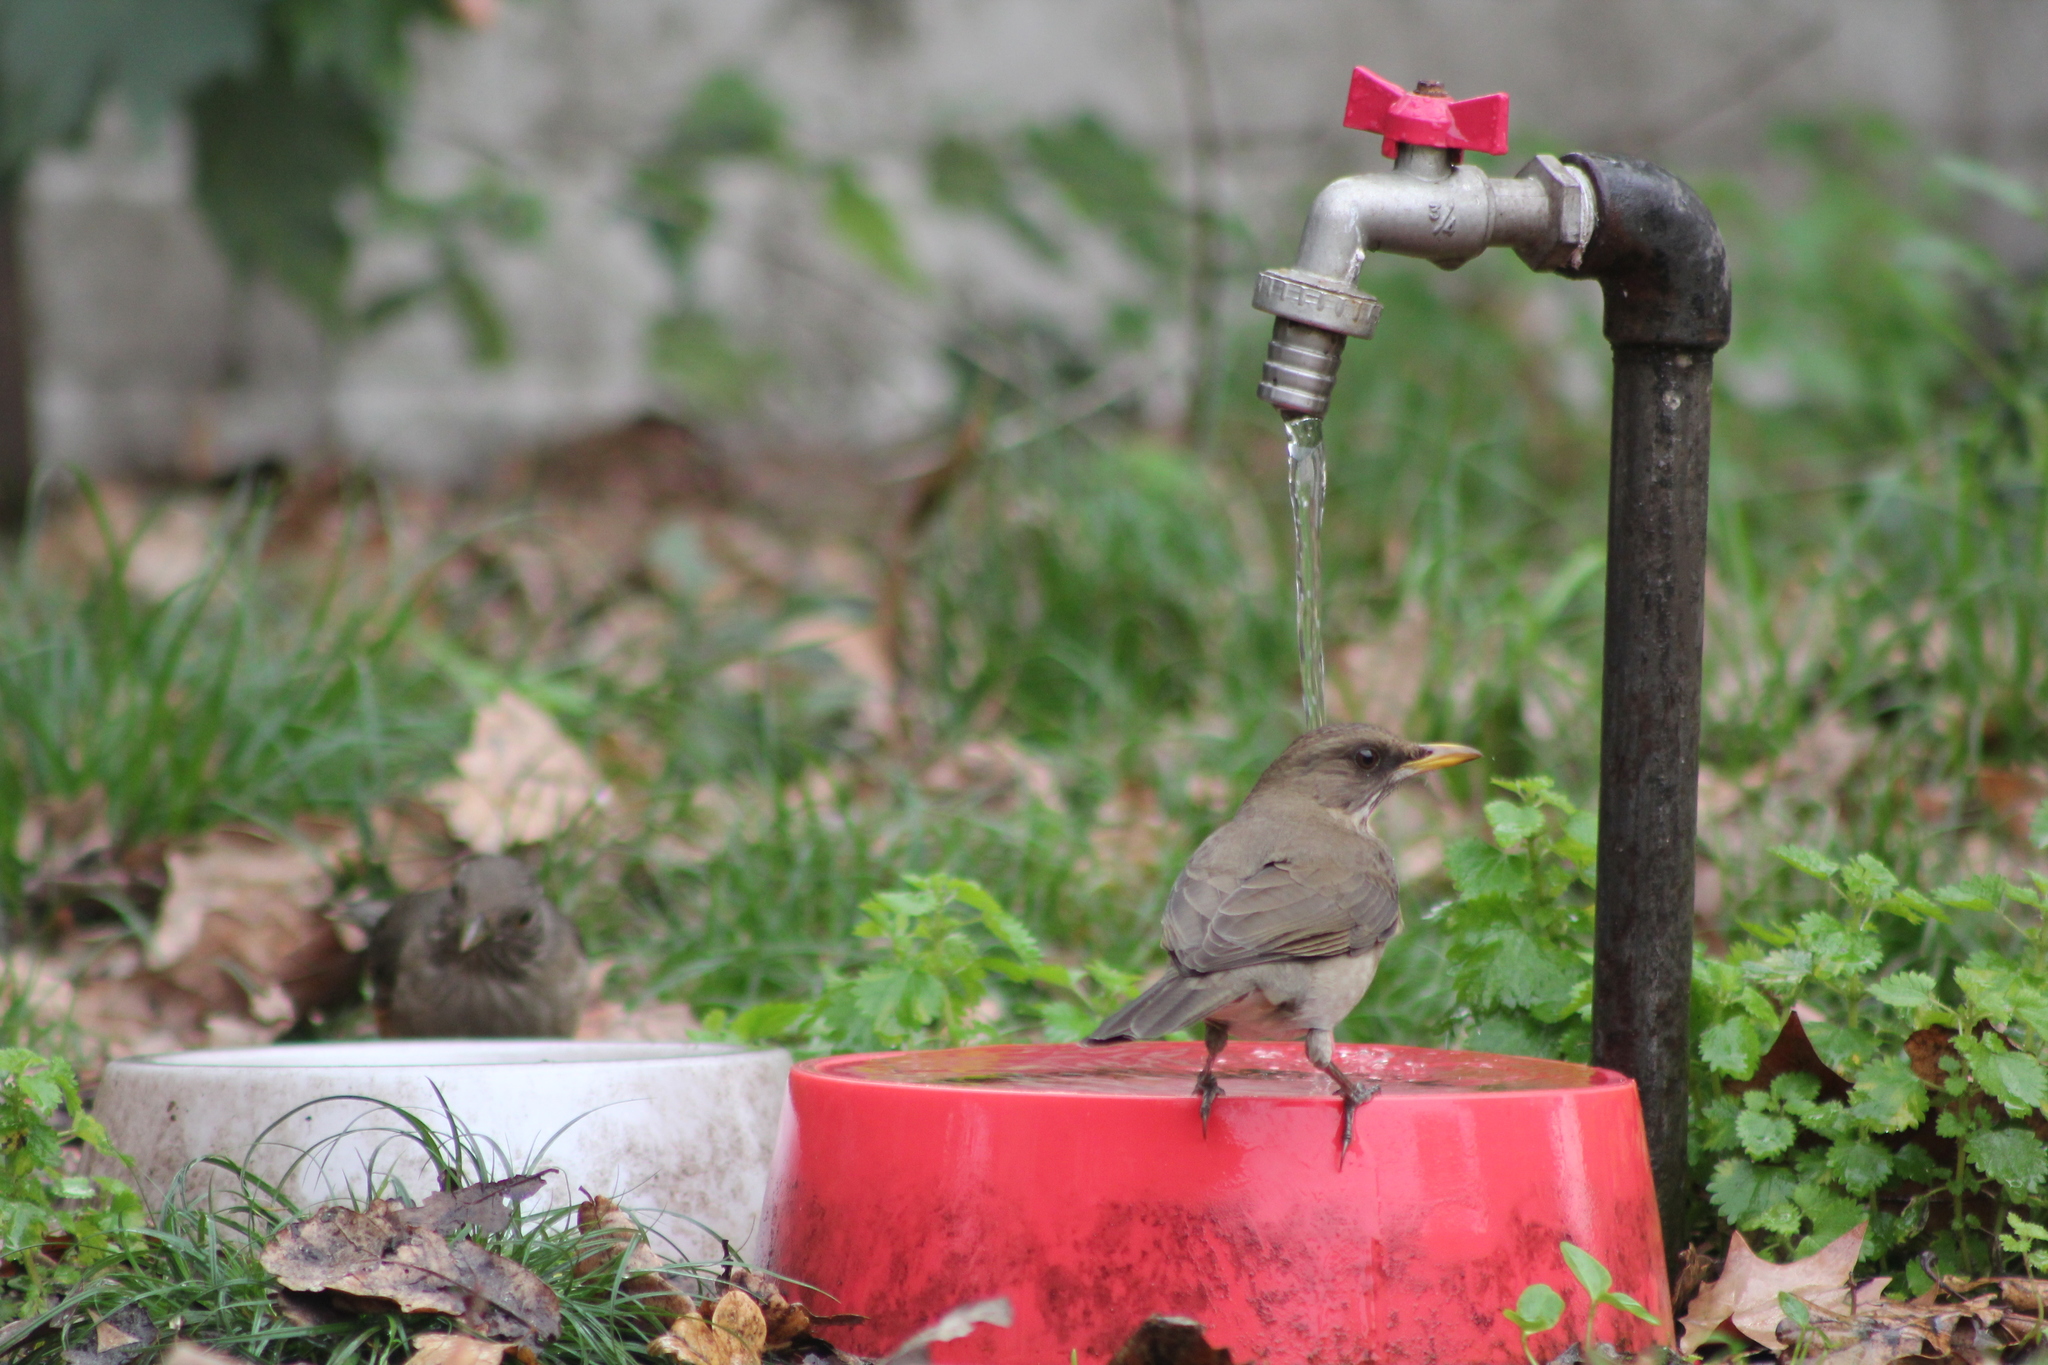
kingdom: Animalia
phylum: Chordata
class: Aves
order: Passeriformes
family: Turdidae
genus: Turdus
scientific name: Turdus amaurochalinus
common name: Creamy-bellied thrush
